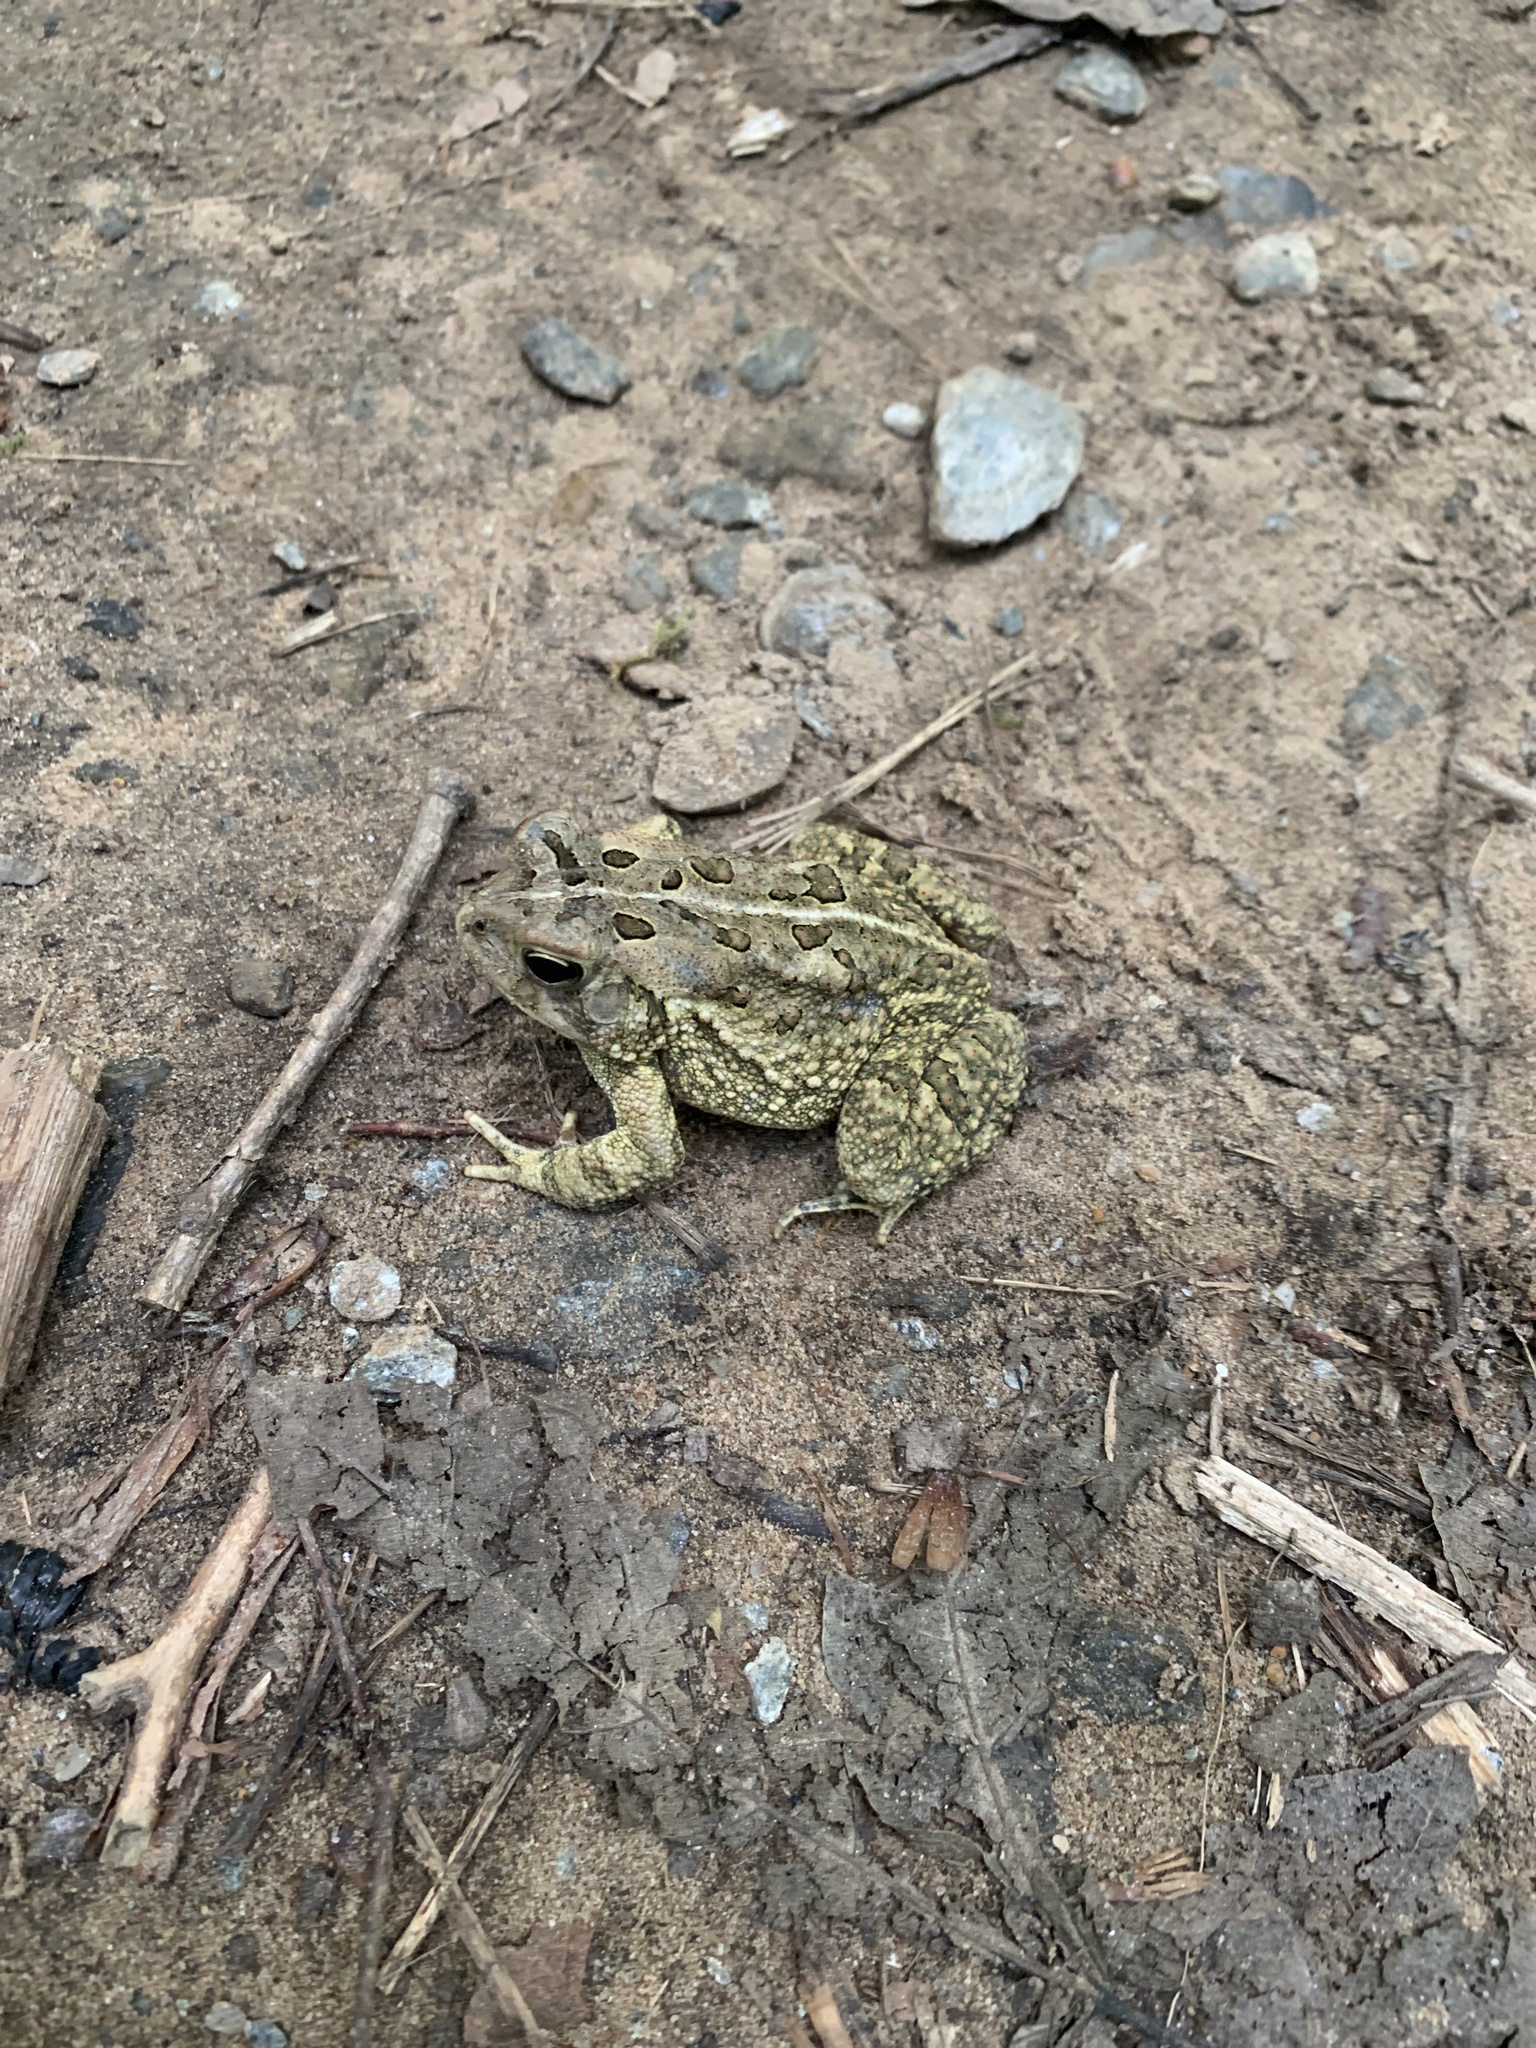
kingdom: Animalia
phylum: Chordata
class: Amphibia
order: Anura
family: Bufonidae
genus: Anaxyrus
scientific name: Anaxyrus americanus
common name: American toad
